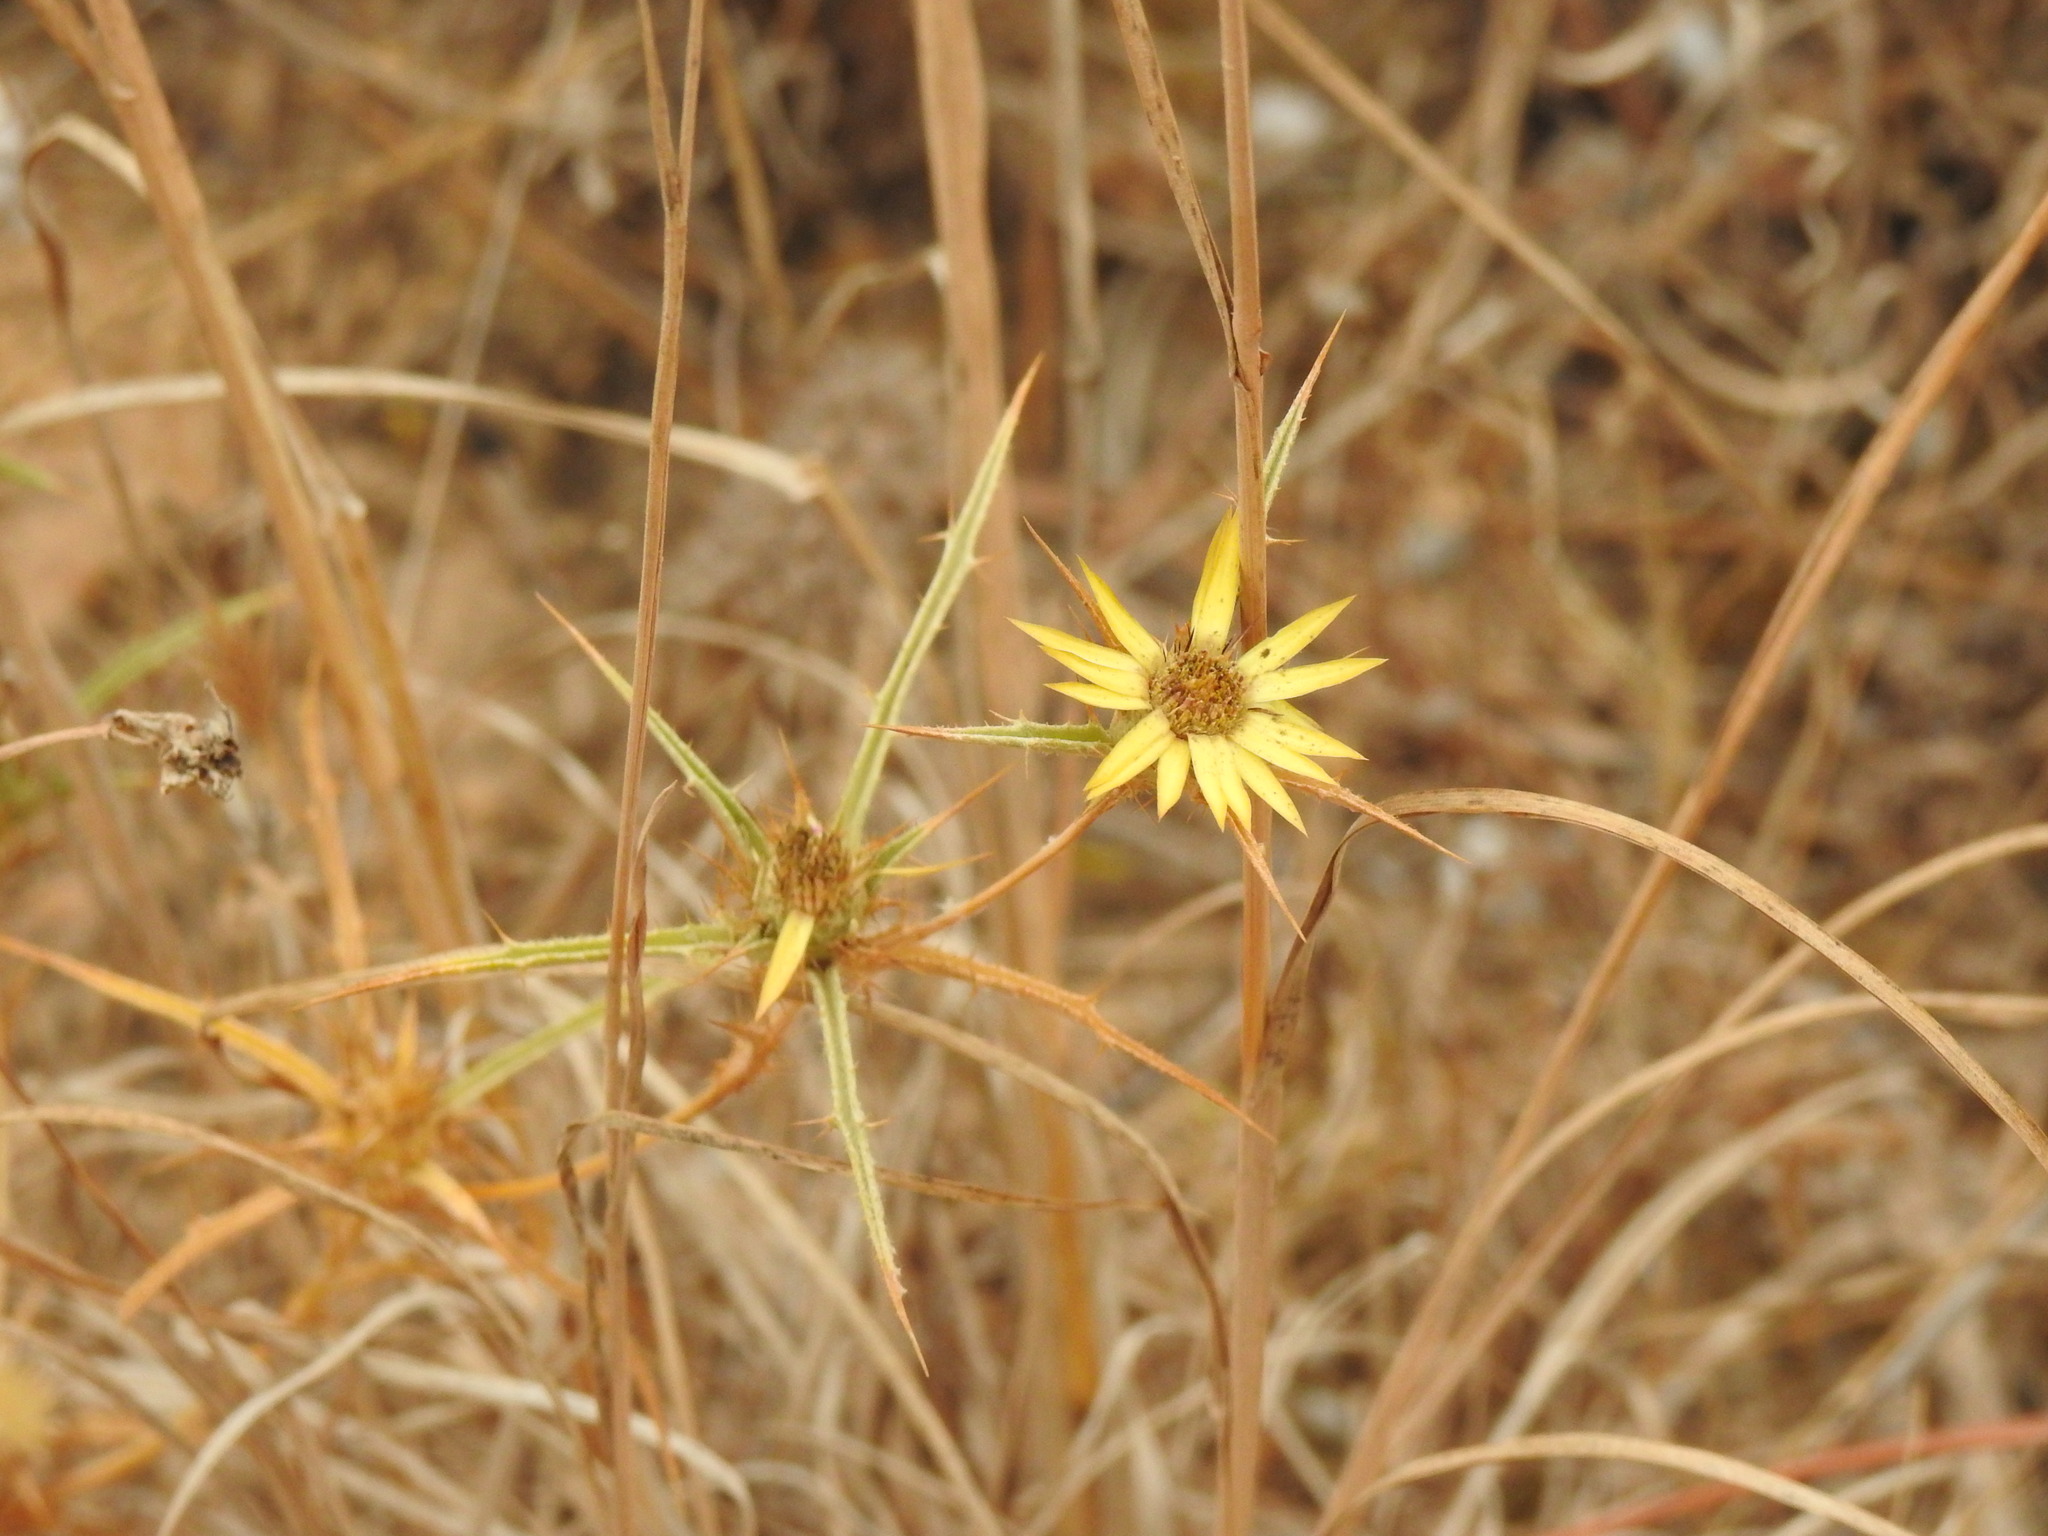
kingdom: Plantae
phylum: Tracheophyta
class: Magnoliopsida
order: Asterales
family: Asteraceae
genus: Carlina
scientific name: Carlina racemosa
